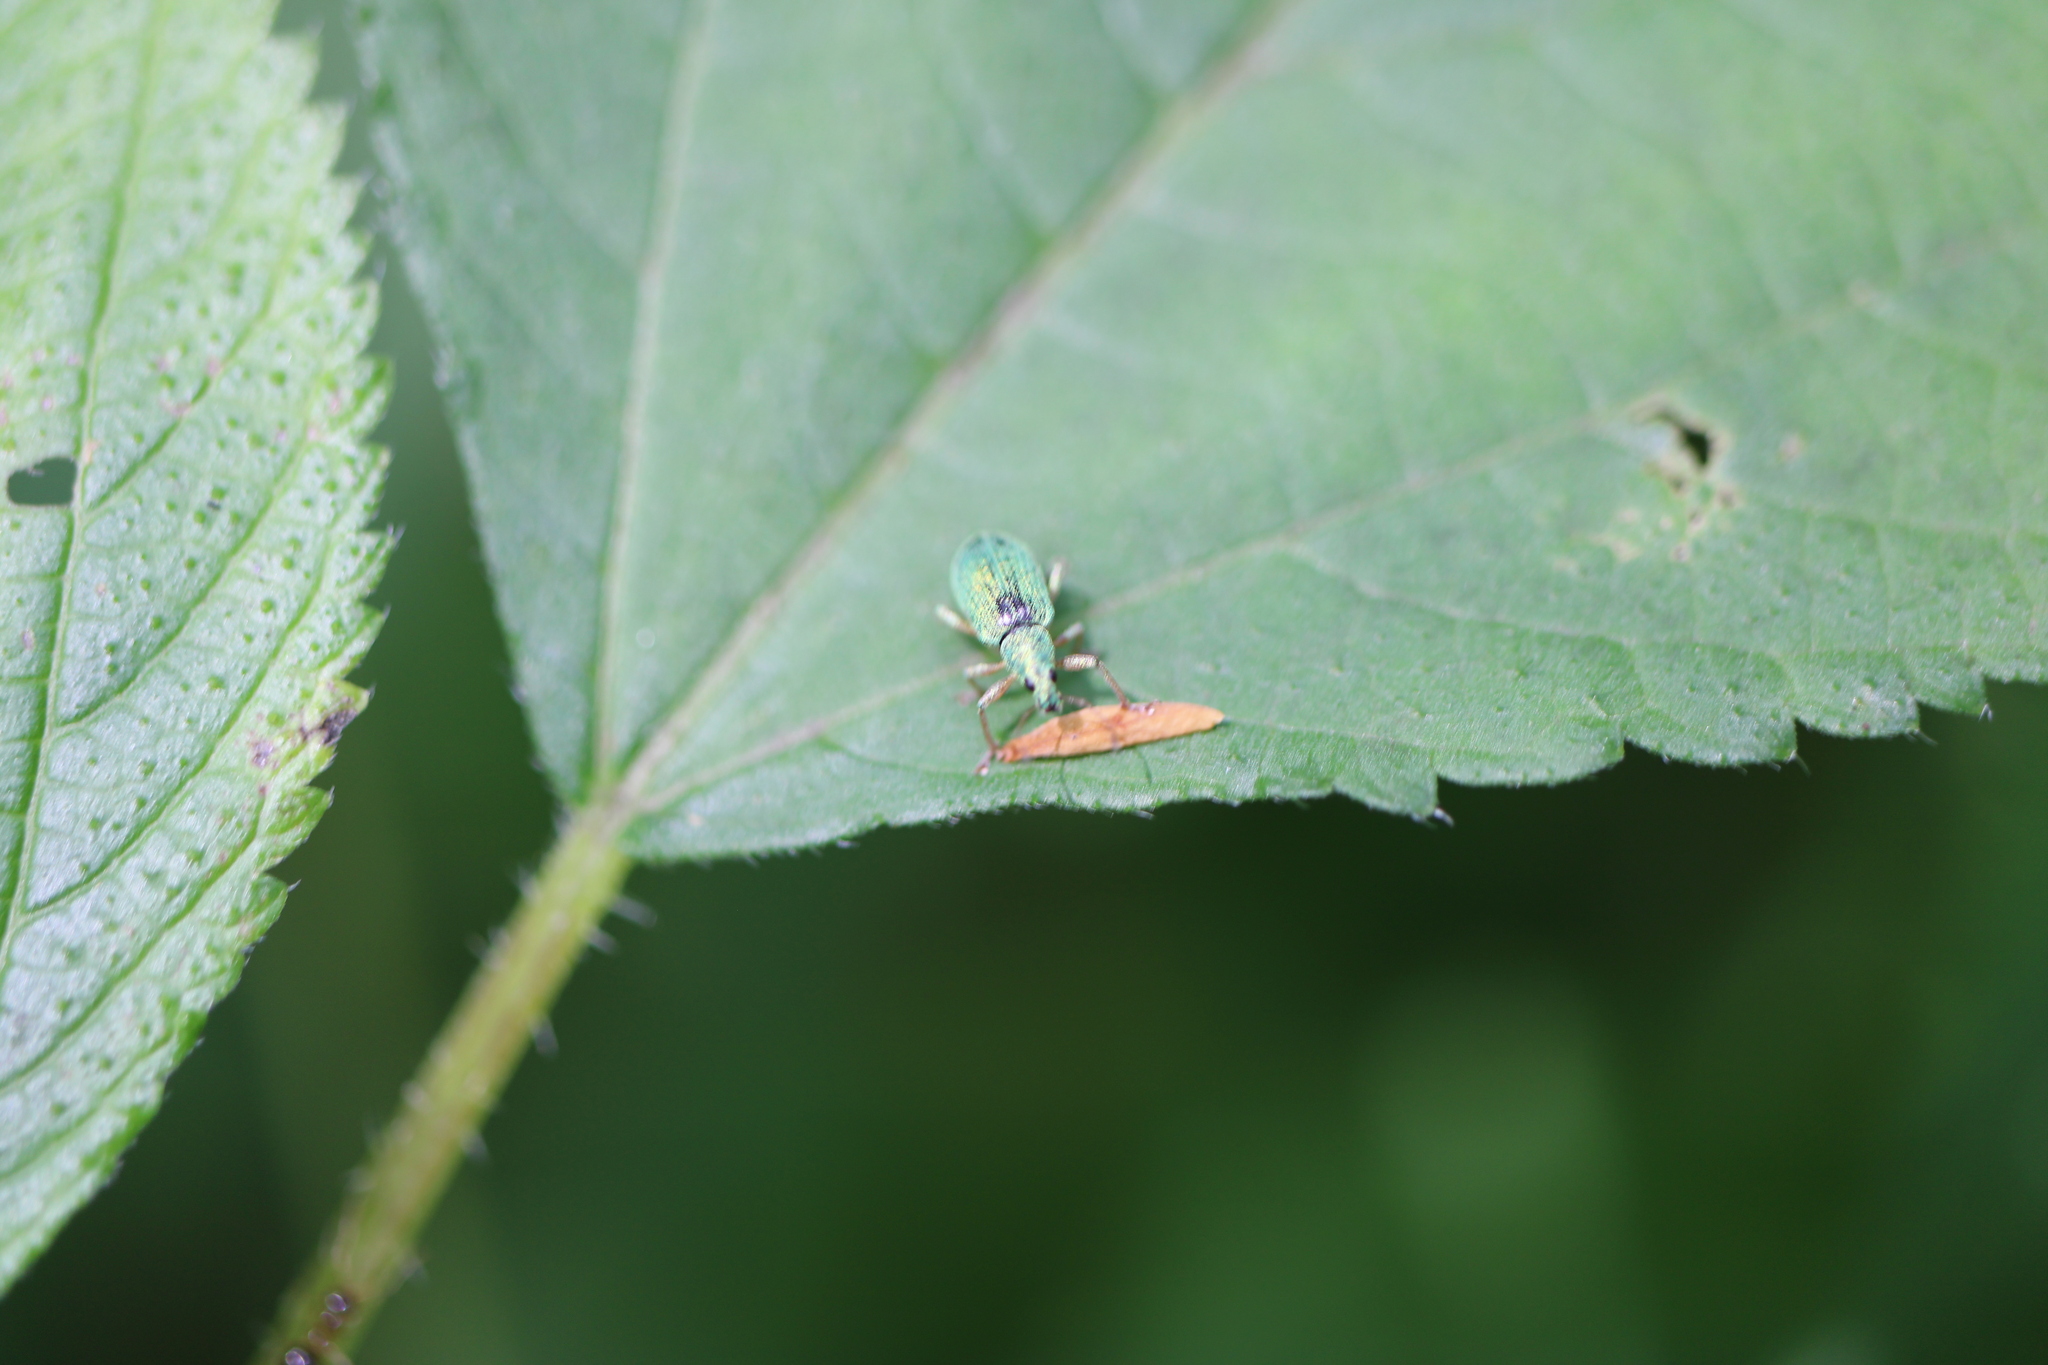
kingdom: Animalia
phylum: Arthropoda
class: Insecta
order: Coleoptera
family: Curculionidae
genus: Polydrusus
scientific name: Polydrusus formosus
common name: Weevil
